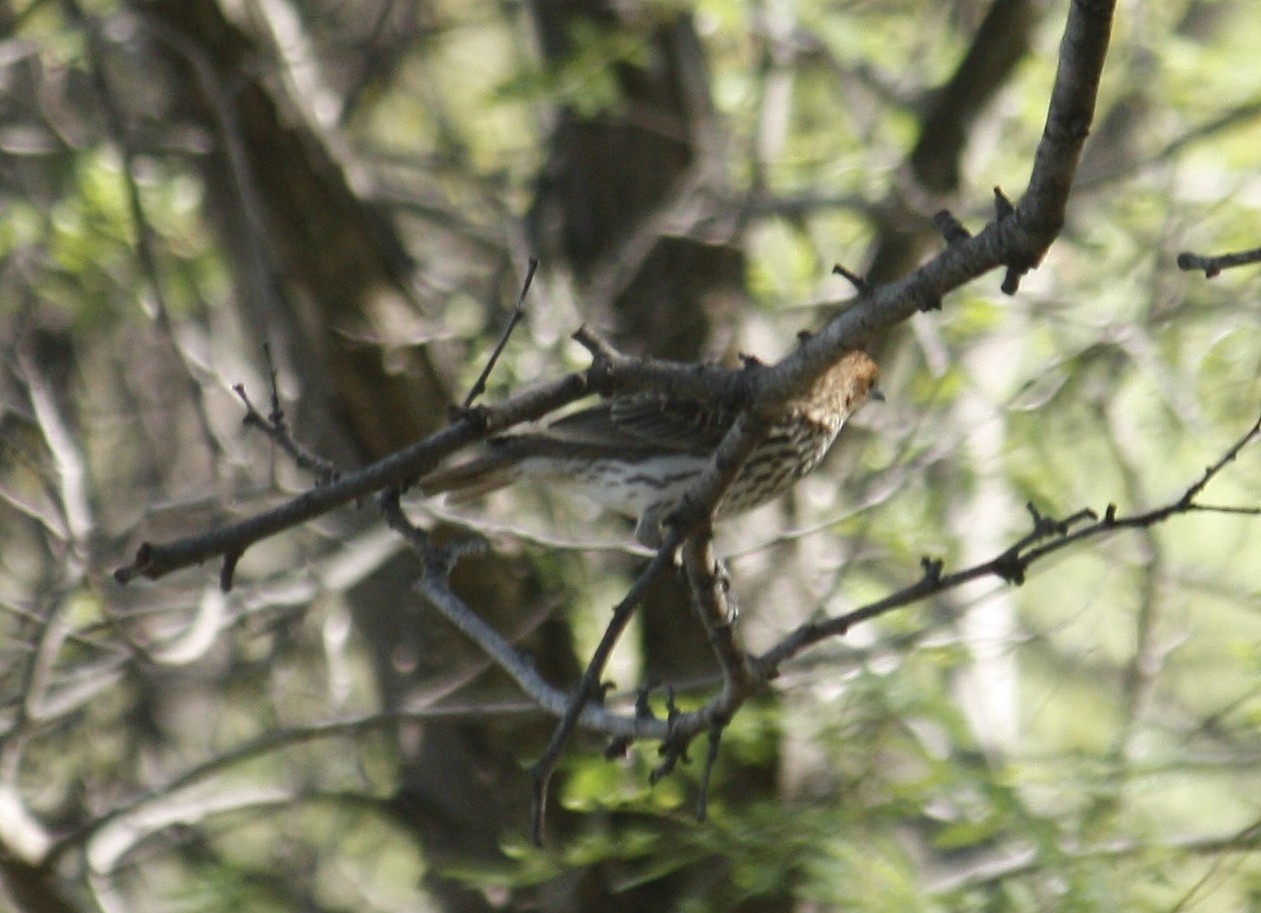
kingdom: Animalia
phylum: Chordata
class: Aves
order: Passeriformes
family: Sturnidae
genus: Cinnyricinclus
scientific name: Cinnyricinclus leucogaster
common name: Violet-backed starling
